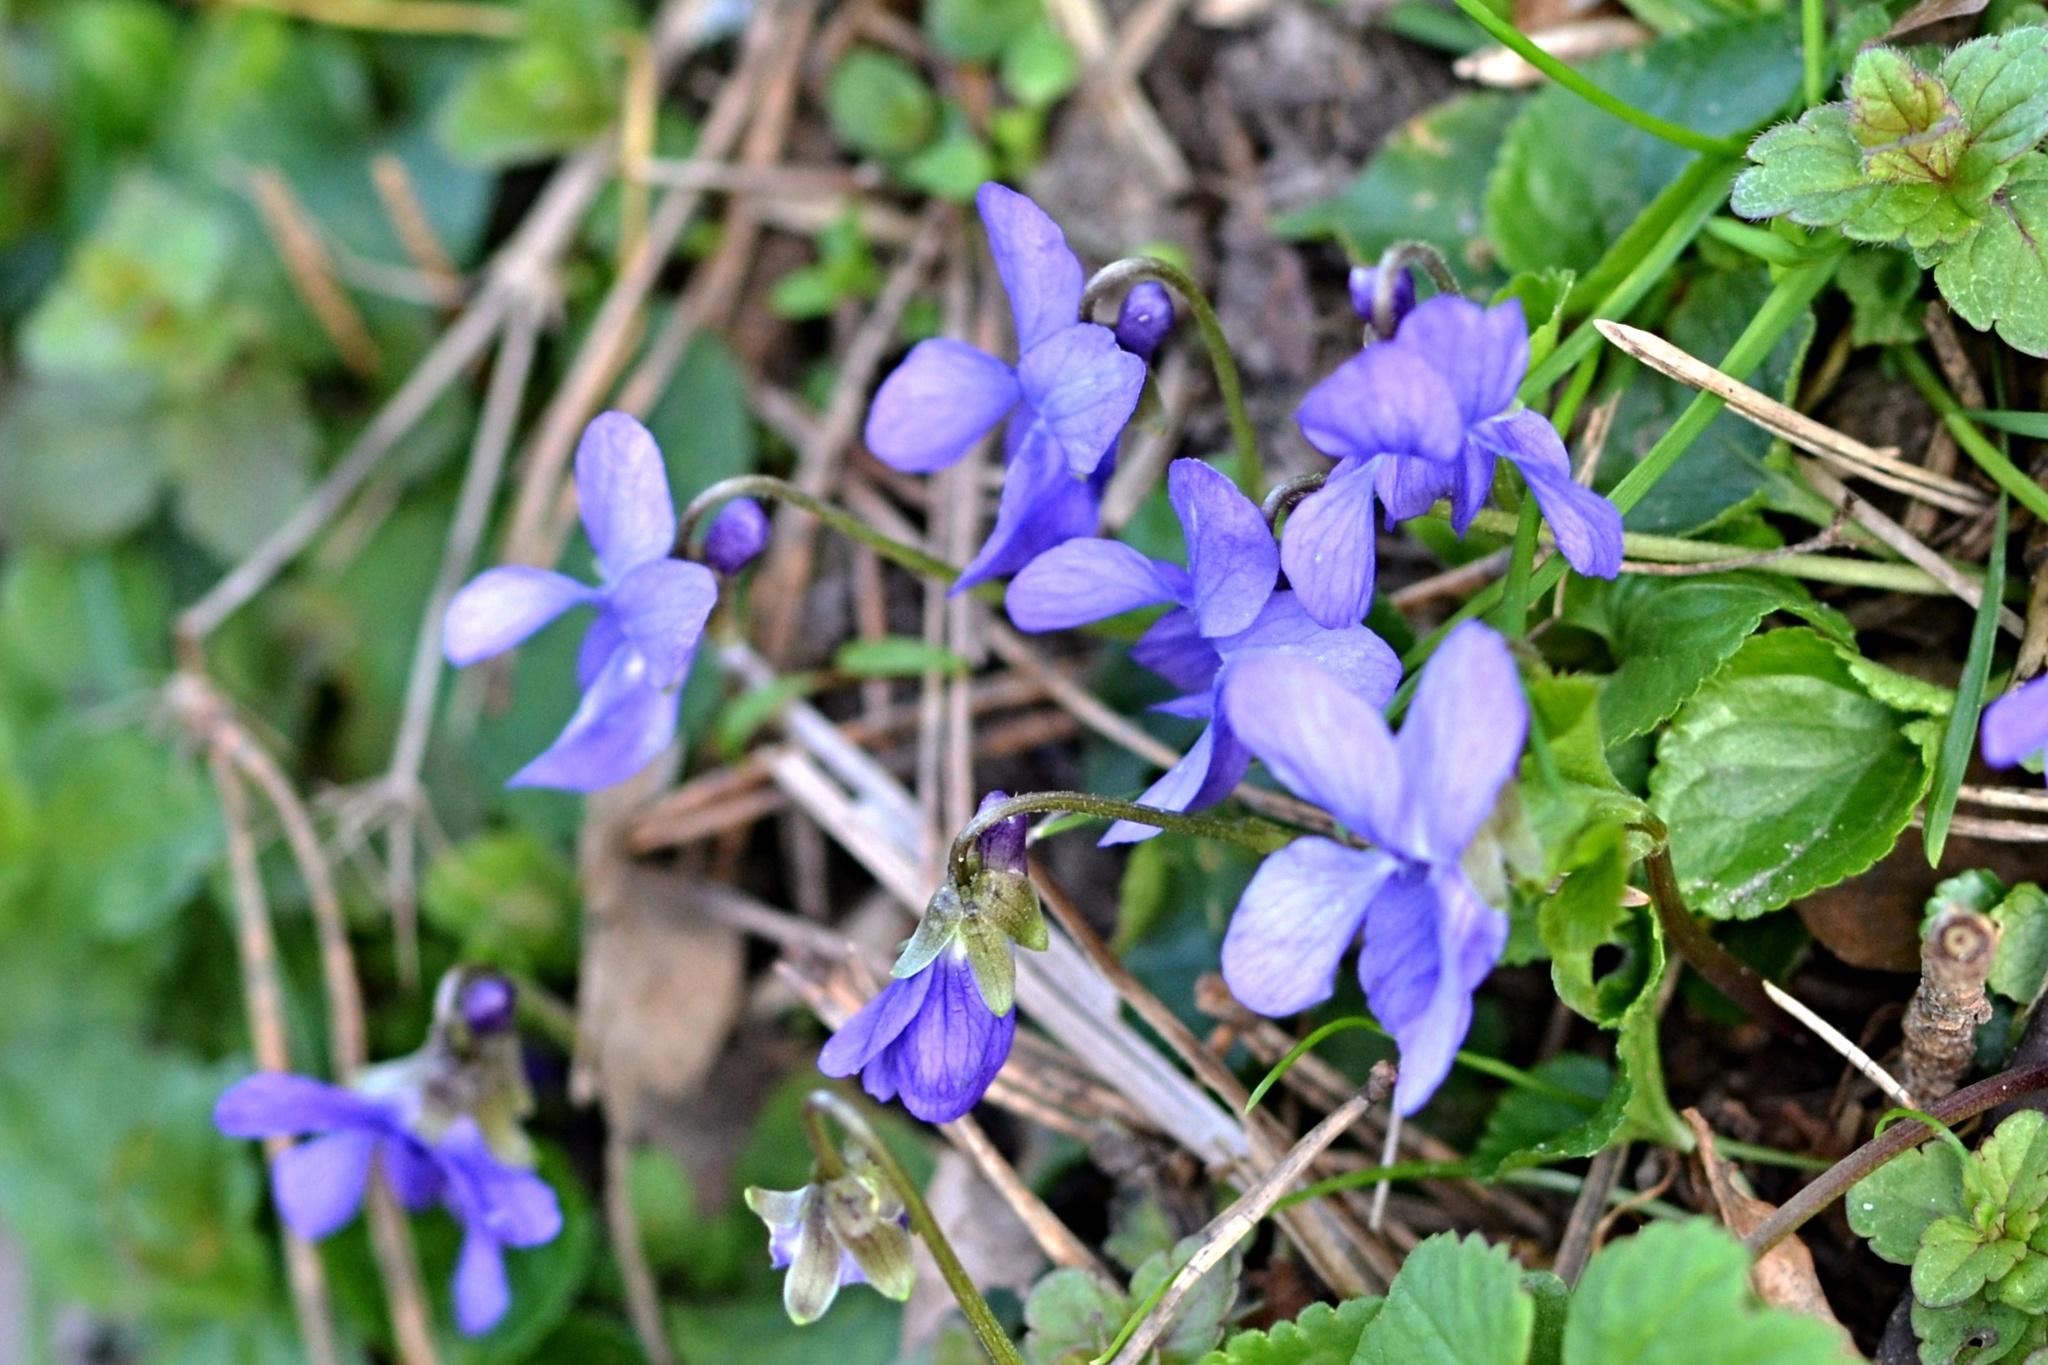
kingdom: Plantae
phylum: Tracheophyta
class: Magnoliopsida
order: Malpighiales
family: Violaceae
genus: Viola
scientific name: Viola odorata
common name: Sweet violet
